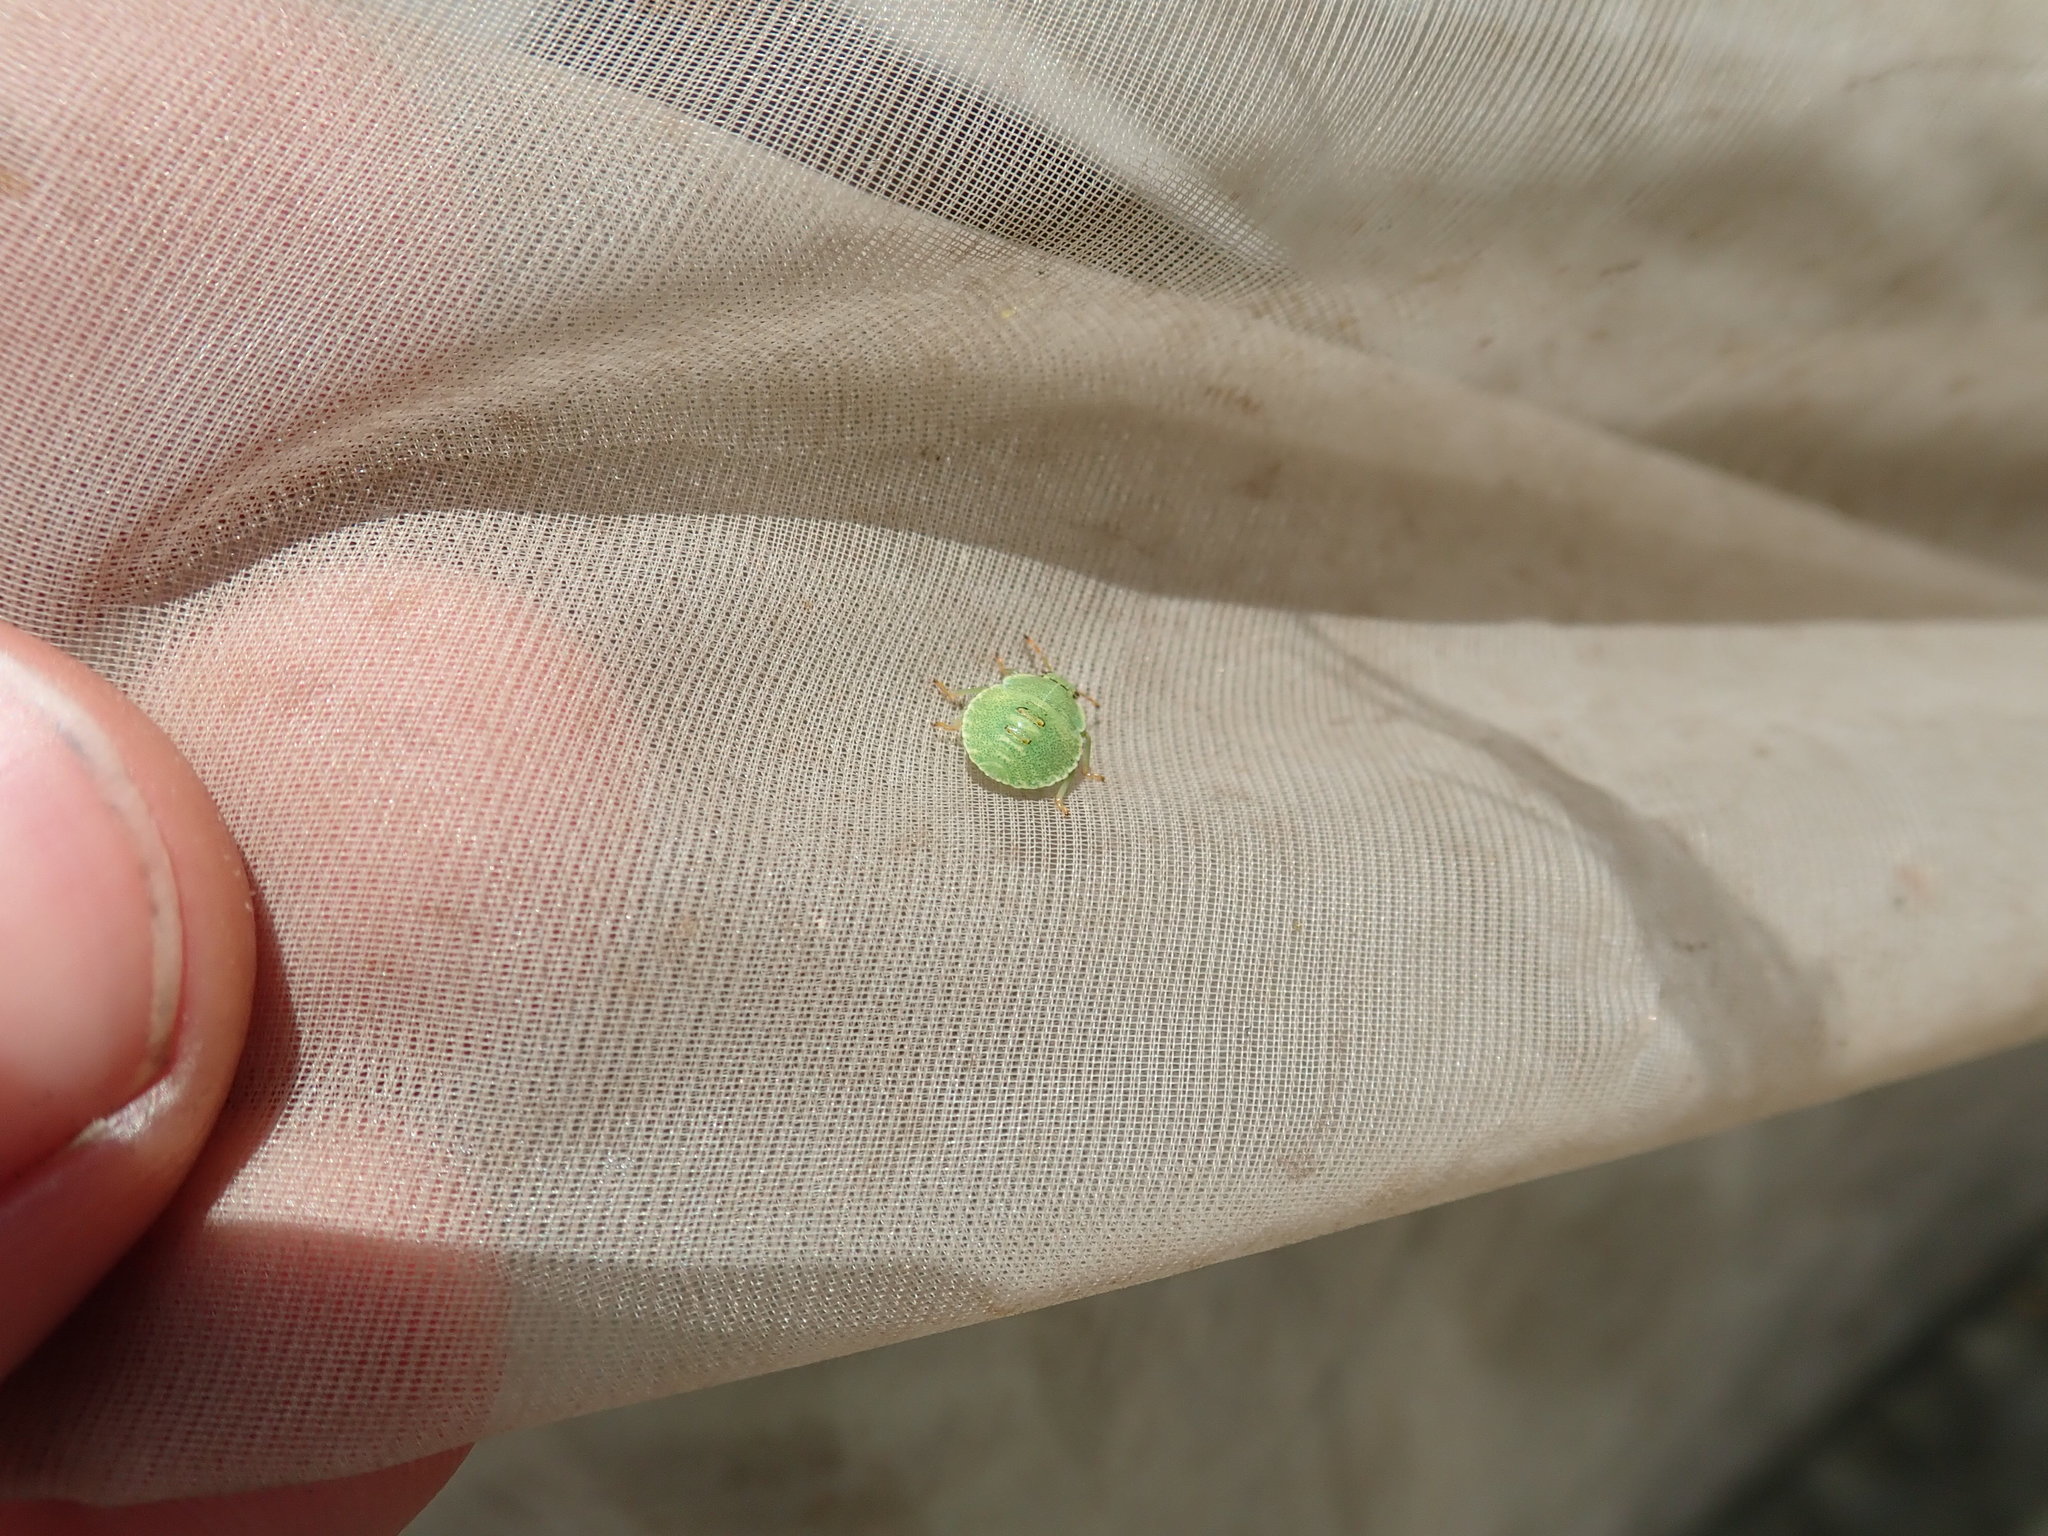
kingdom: Animalia
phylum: Arthropoda
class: Insecta
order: Hemiptera
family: Pentatomidae
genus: Palomena
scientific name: Palomena prasina
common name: Green shieldbug
